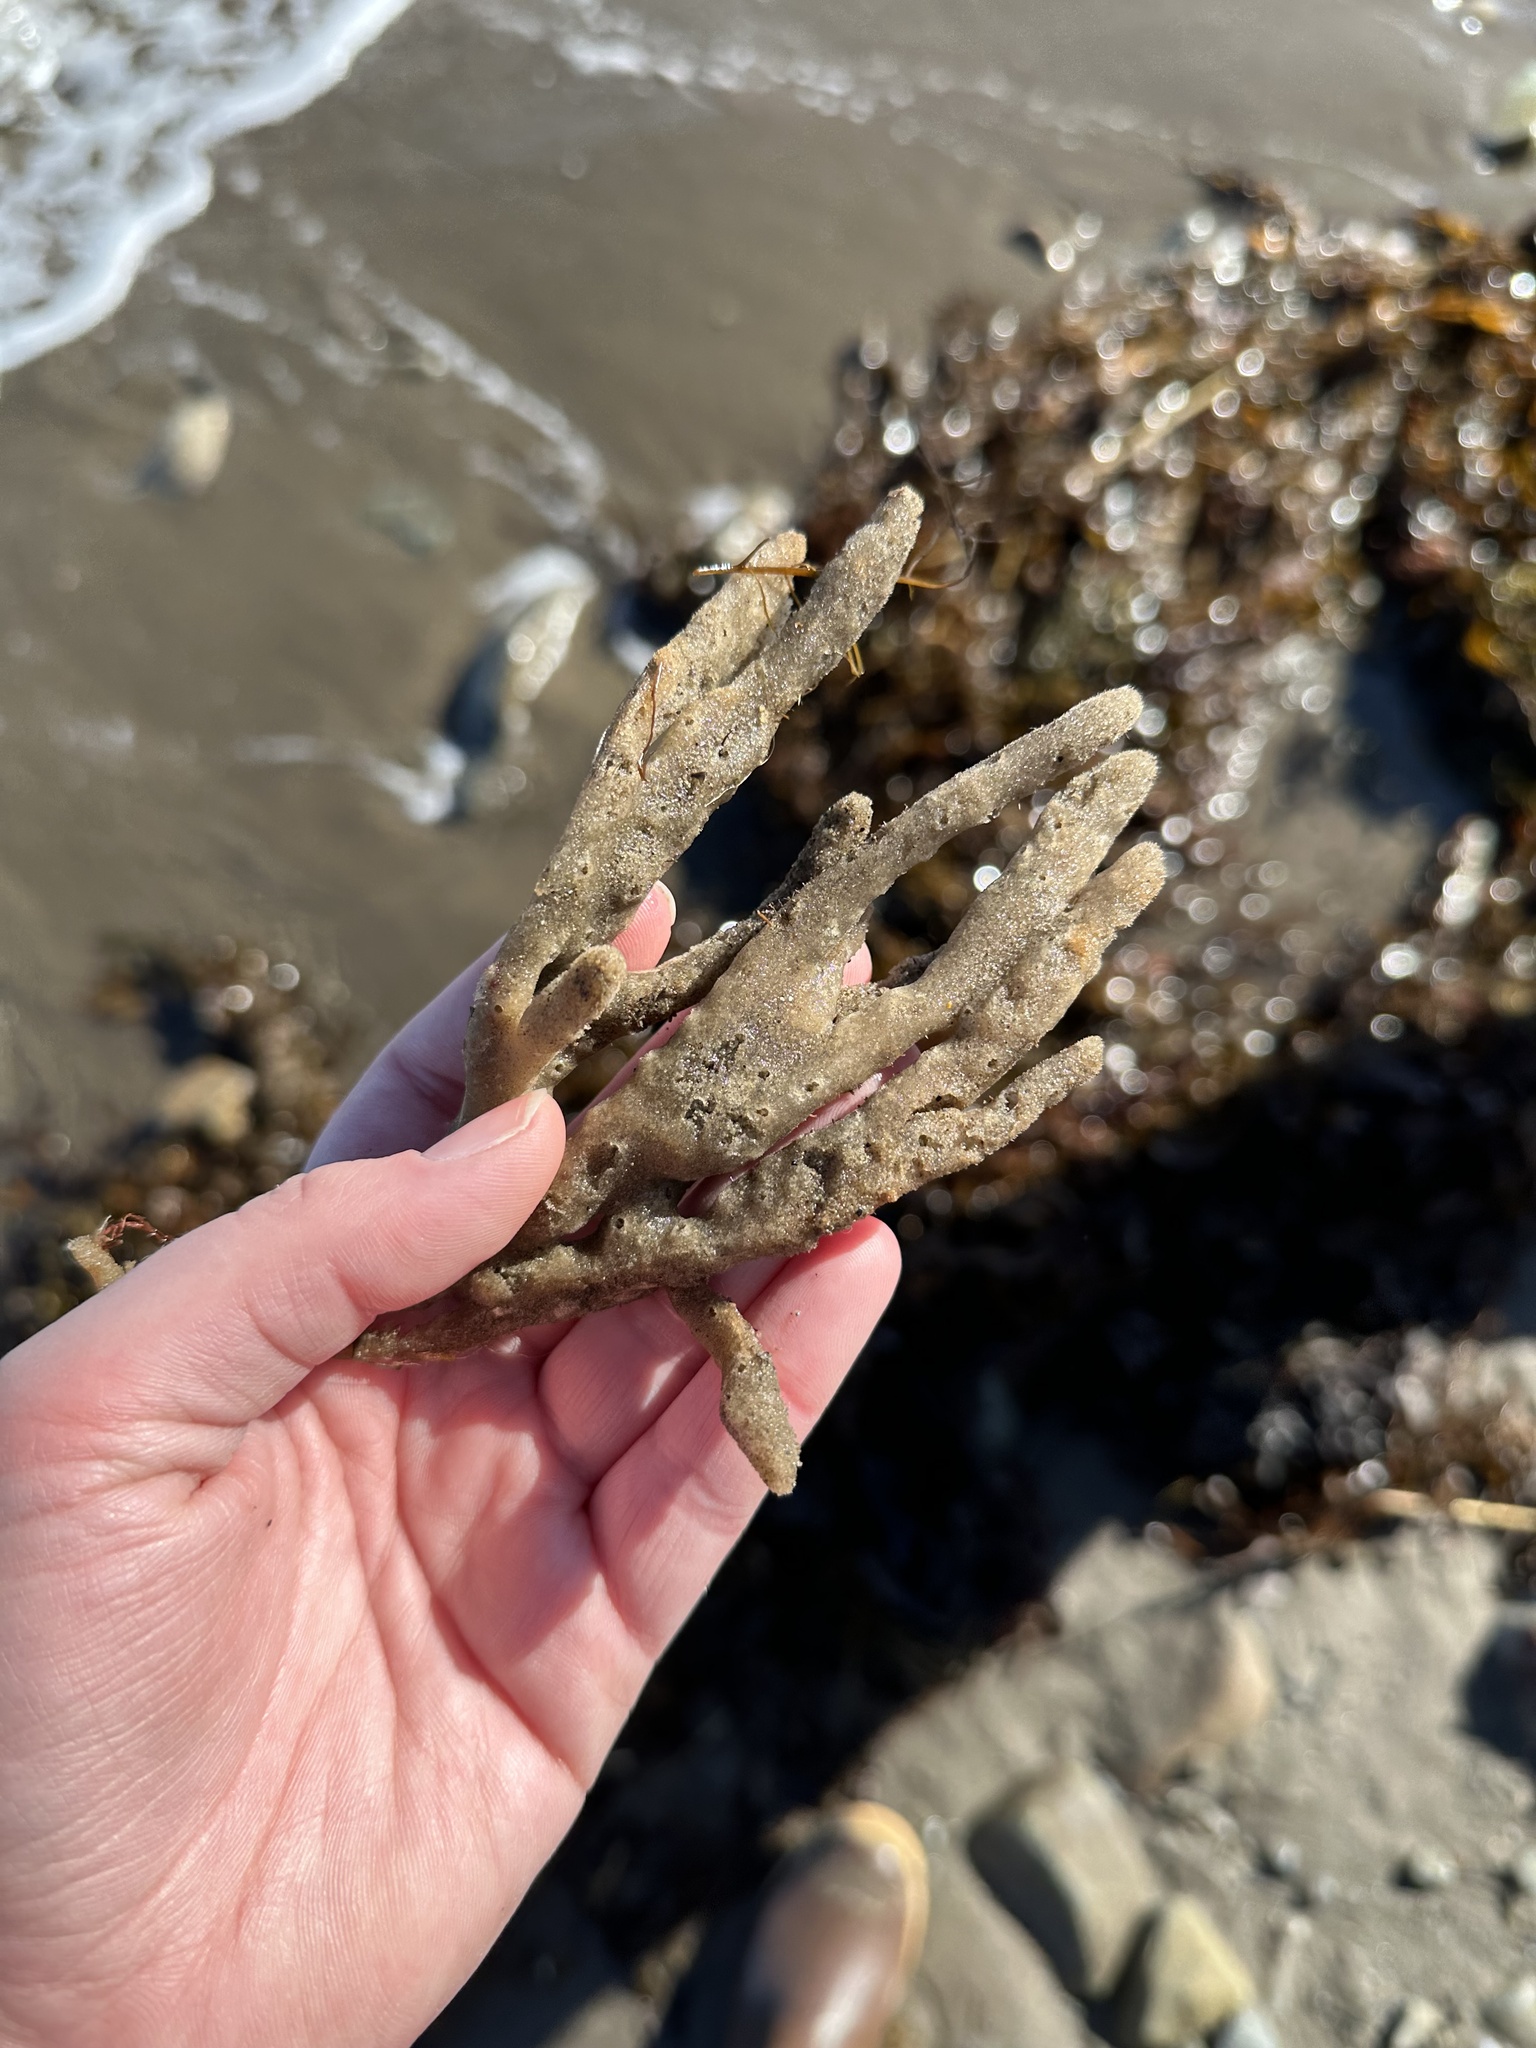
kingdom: Animalia
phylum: Porifera
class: Demospongiae
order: Haplosclerida
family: Chalinidae
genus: Haliclona
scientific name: Haliclona oculata
